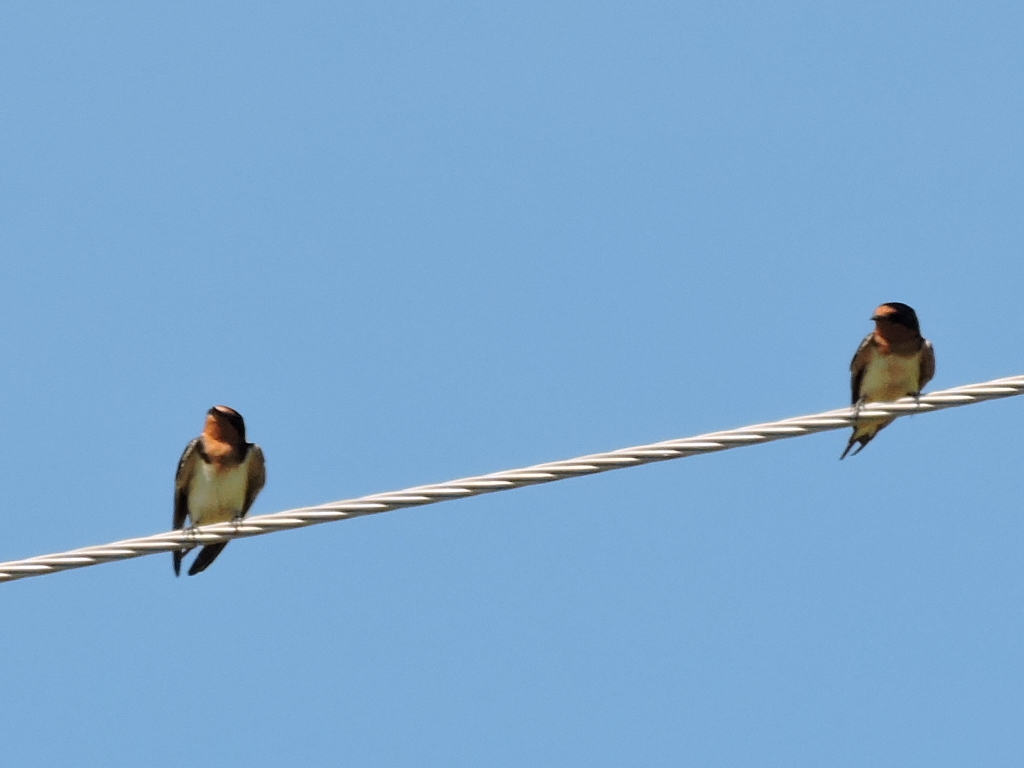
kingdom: Animalia
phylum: Chordata
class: Aves
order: Passeriformes
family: Hirundinidae
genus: Hirundo
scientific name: Hirundo rustica
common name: Barn swallow
